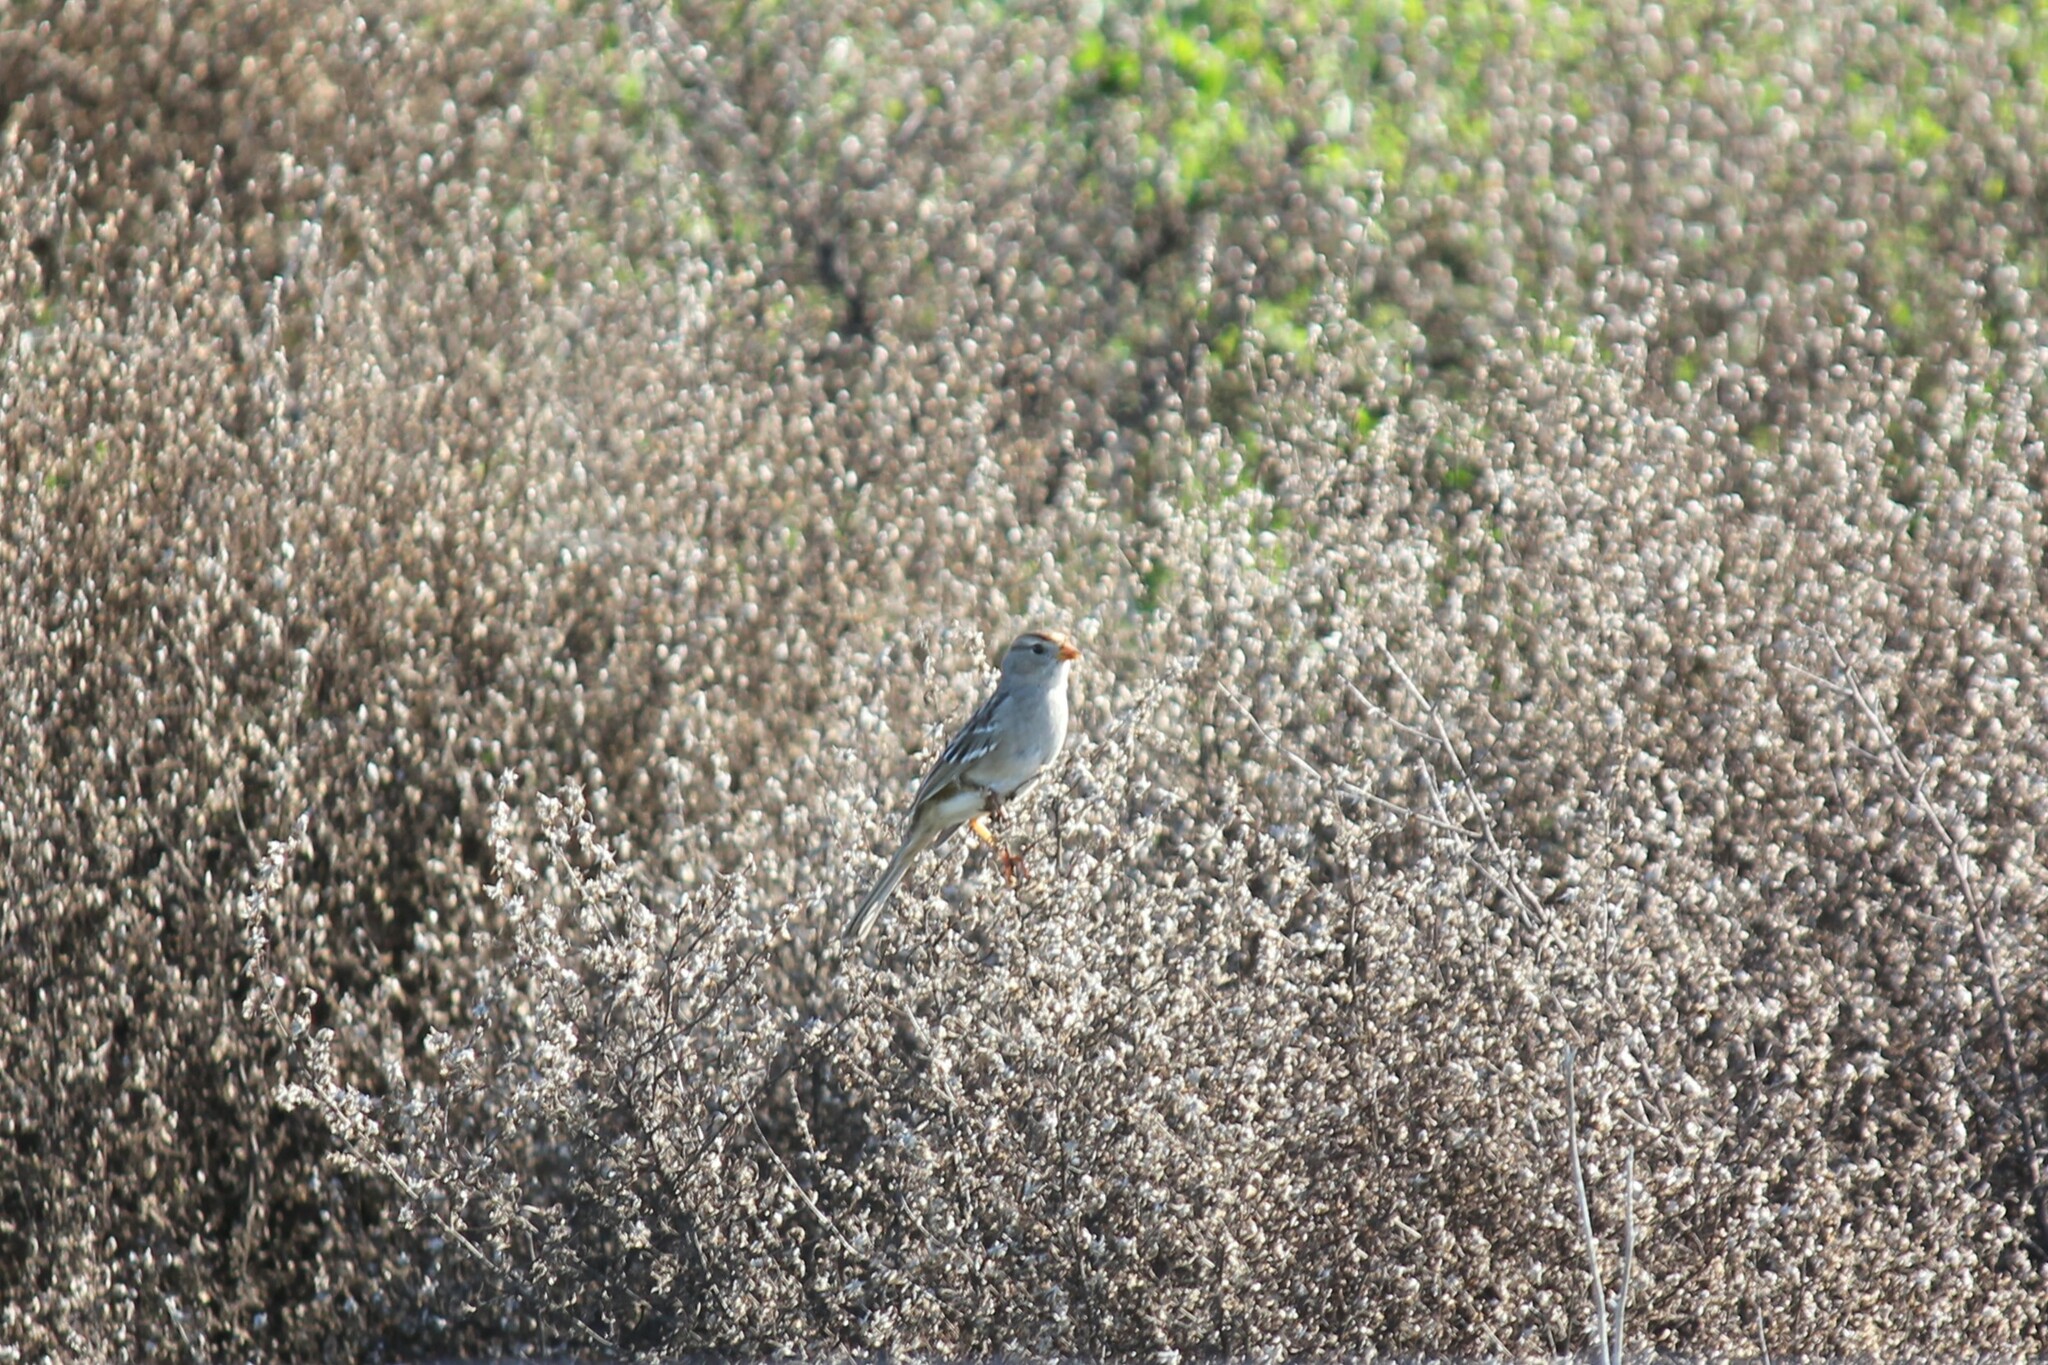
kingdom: Animalia
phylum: Chordata
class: Aves
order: Passeriformes
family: Passerellidae
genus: Zonotrichia
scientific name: Zonotrichia leucophrys
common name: White-crowned sparrow
